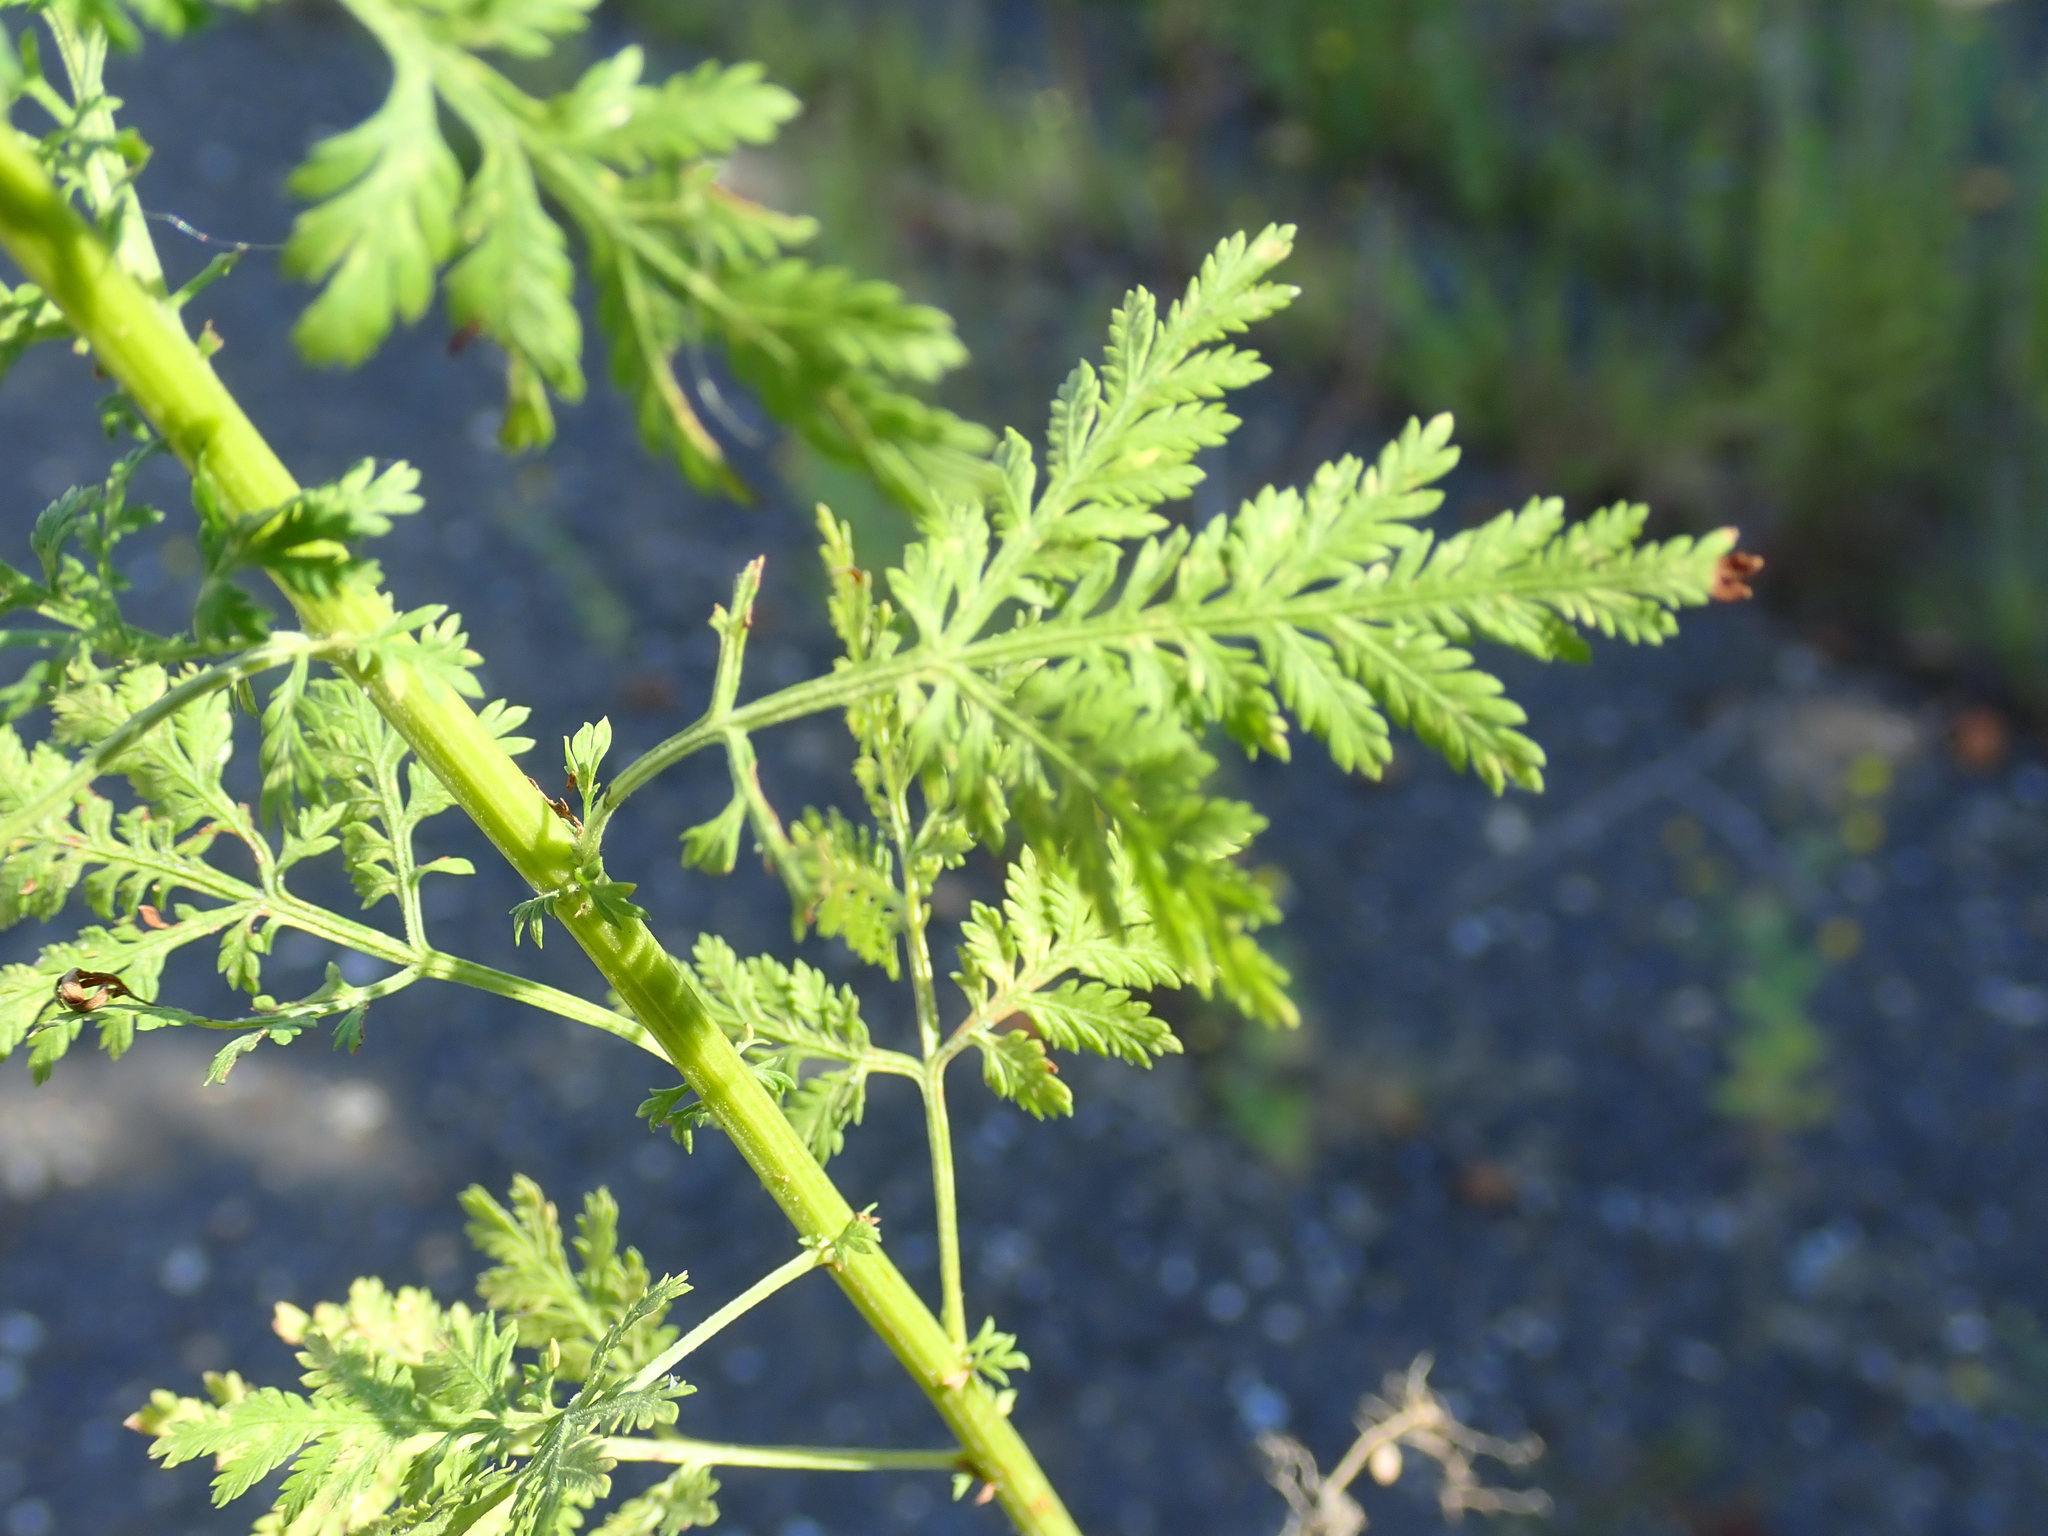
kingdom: Plantae
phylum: Tracheophyta
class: Magnoliopsida
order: Asterales
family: Asteraceae
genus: Artemisia
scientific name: Artemisia annua
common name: Sweet sagewort
